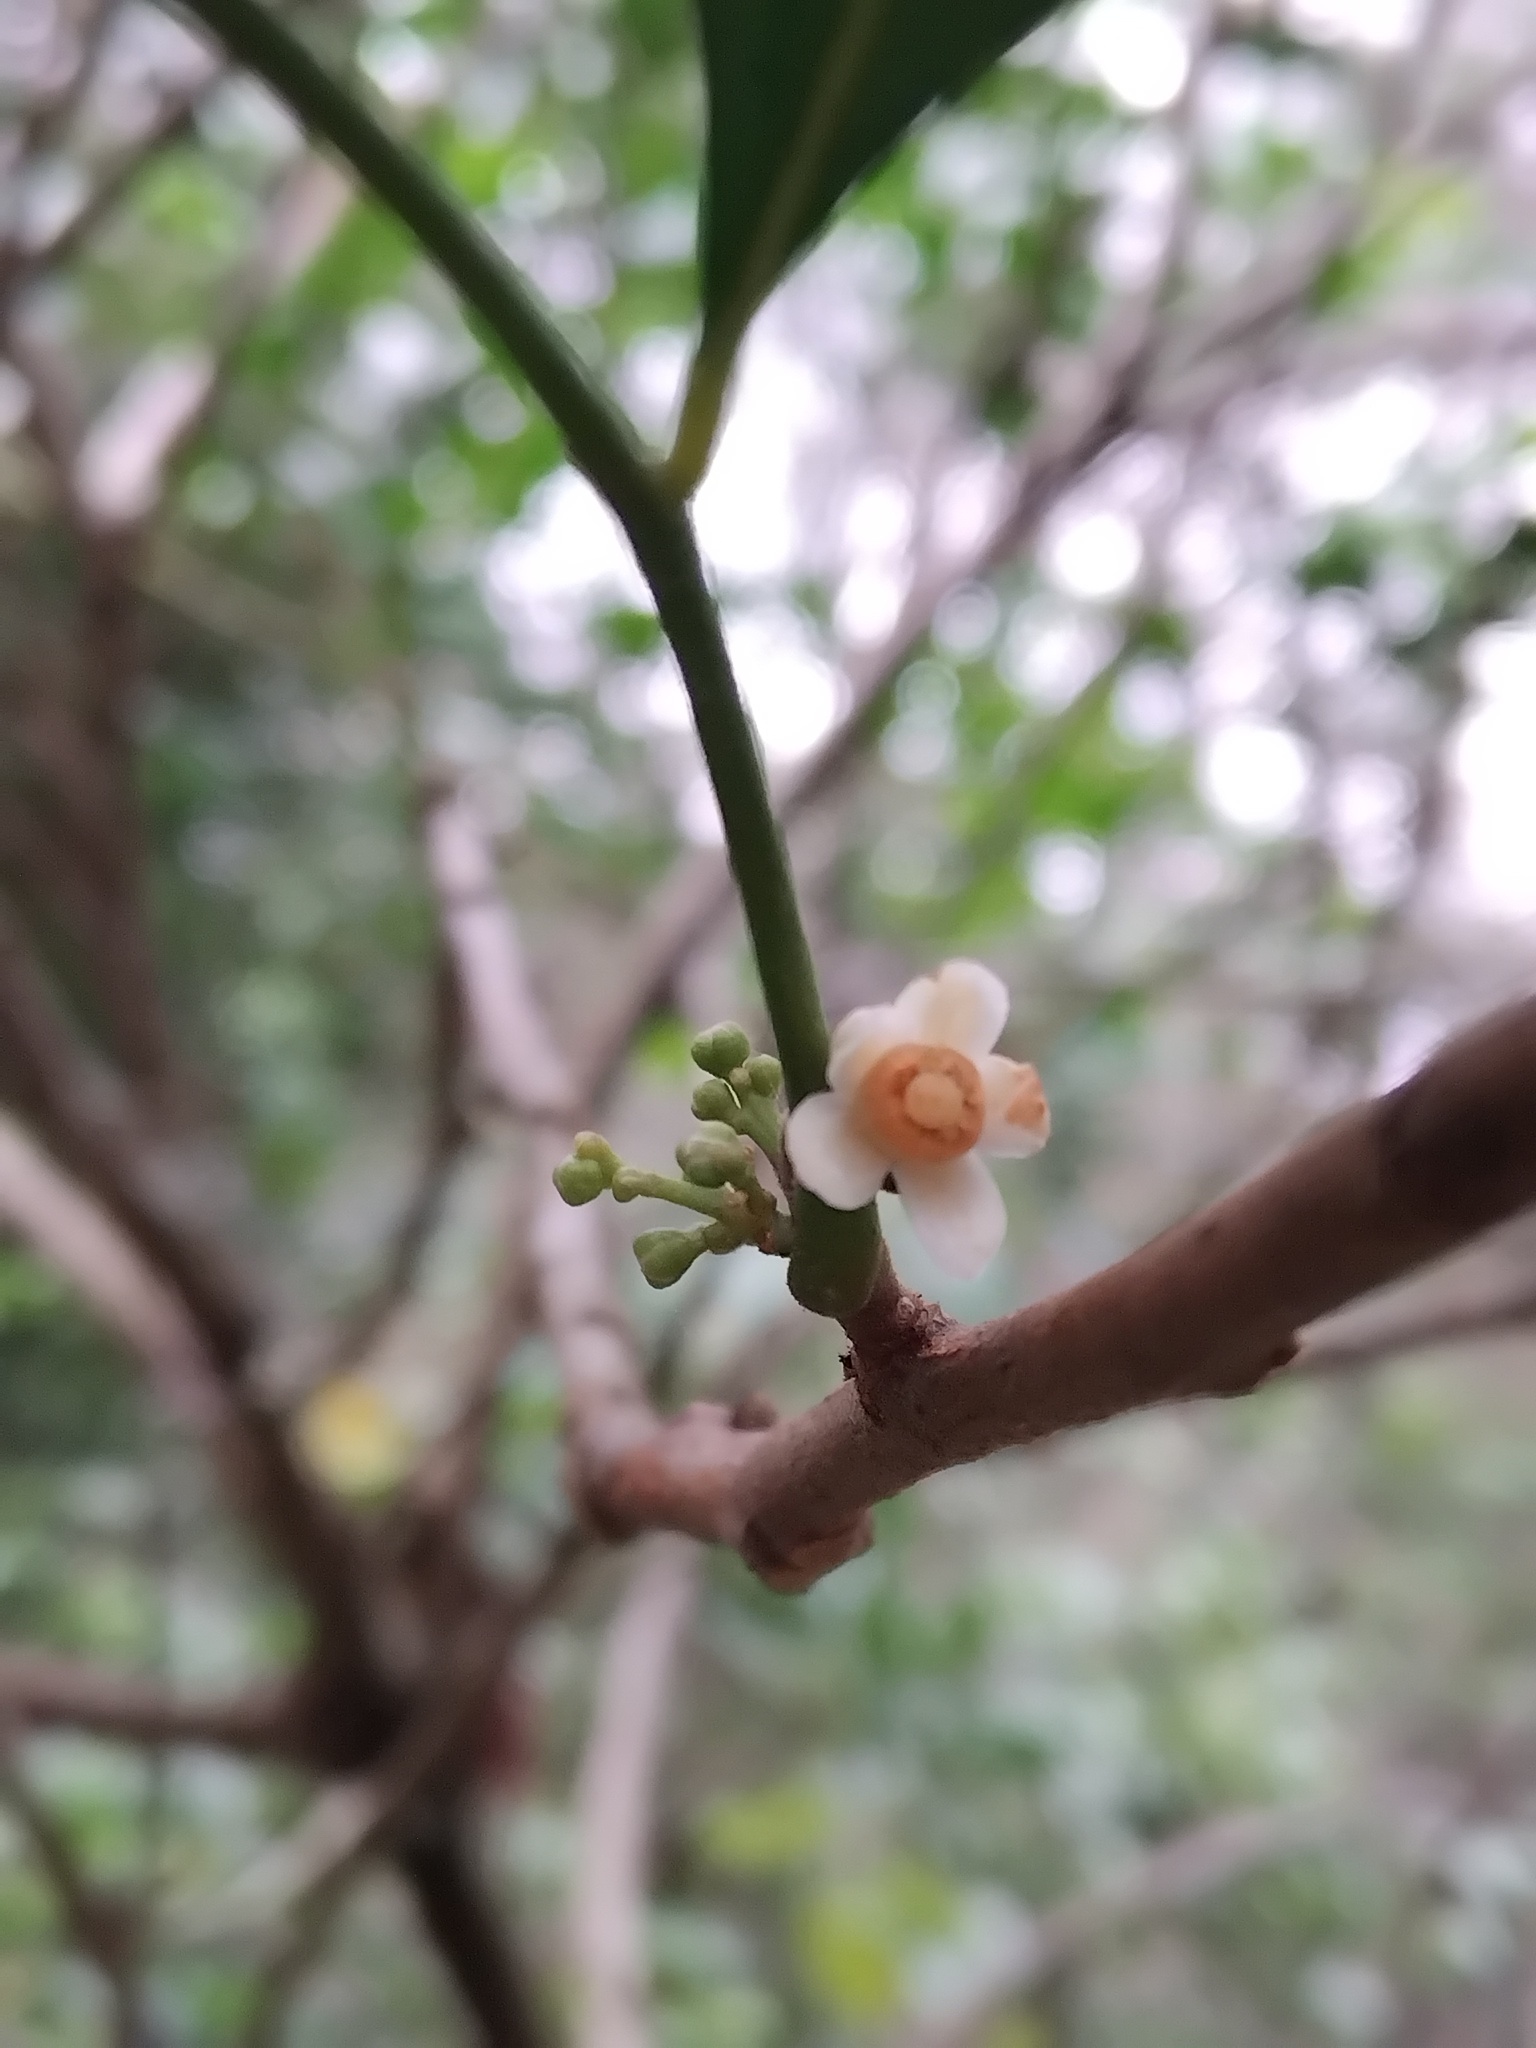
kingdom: Plantae
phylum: Tracheophyta
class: Magnoliopsida
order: Sapindales
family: Meliaceae
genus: Synoum
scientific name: Synoum glandulosum
